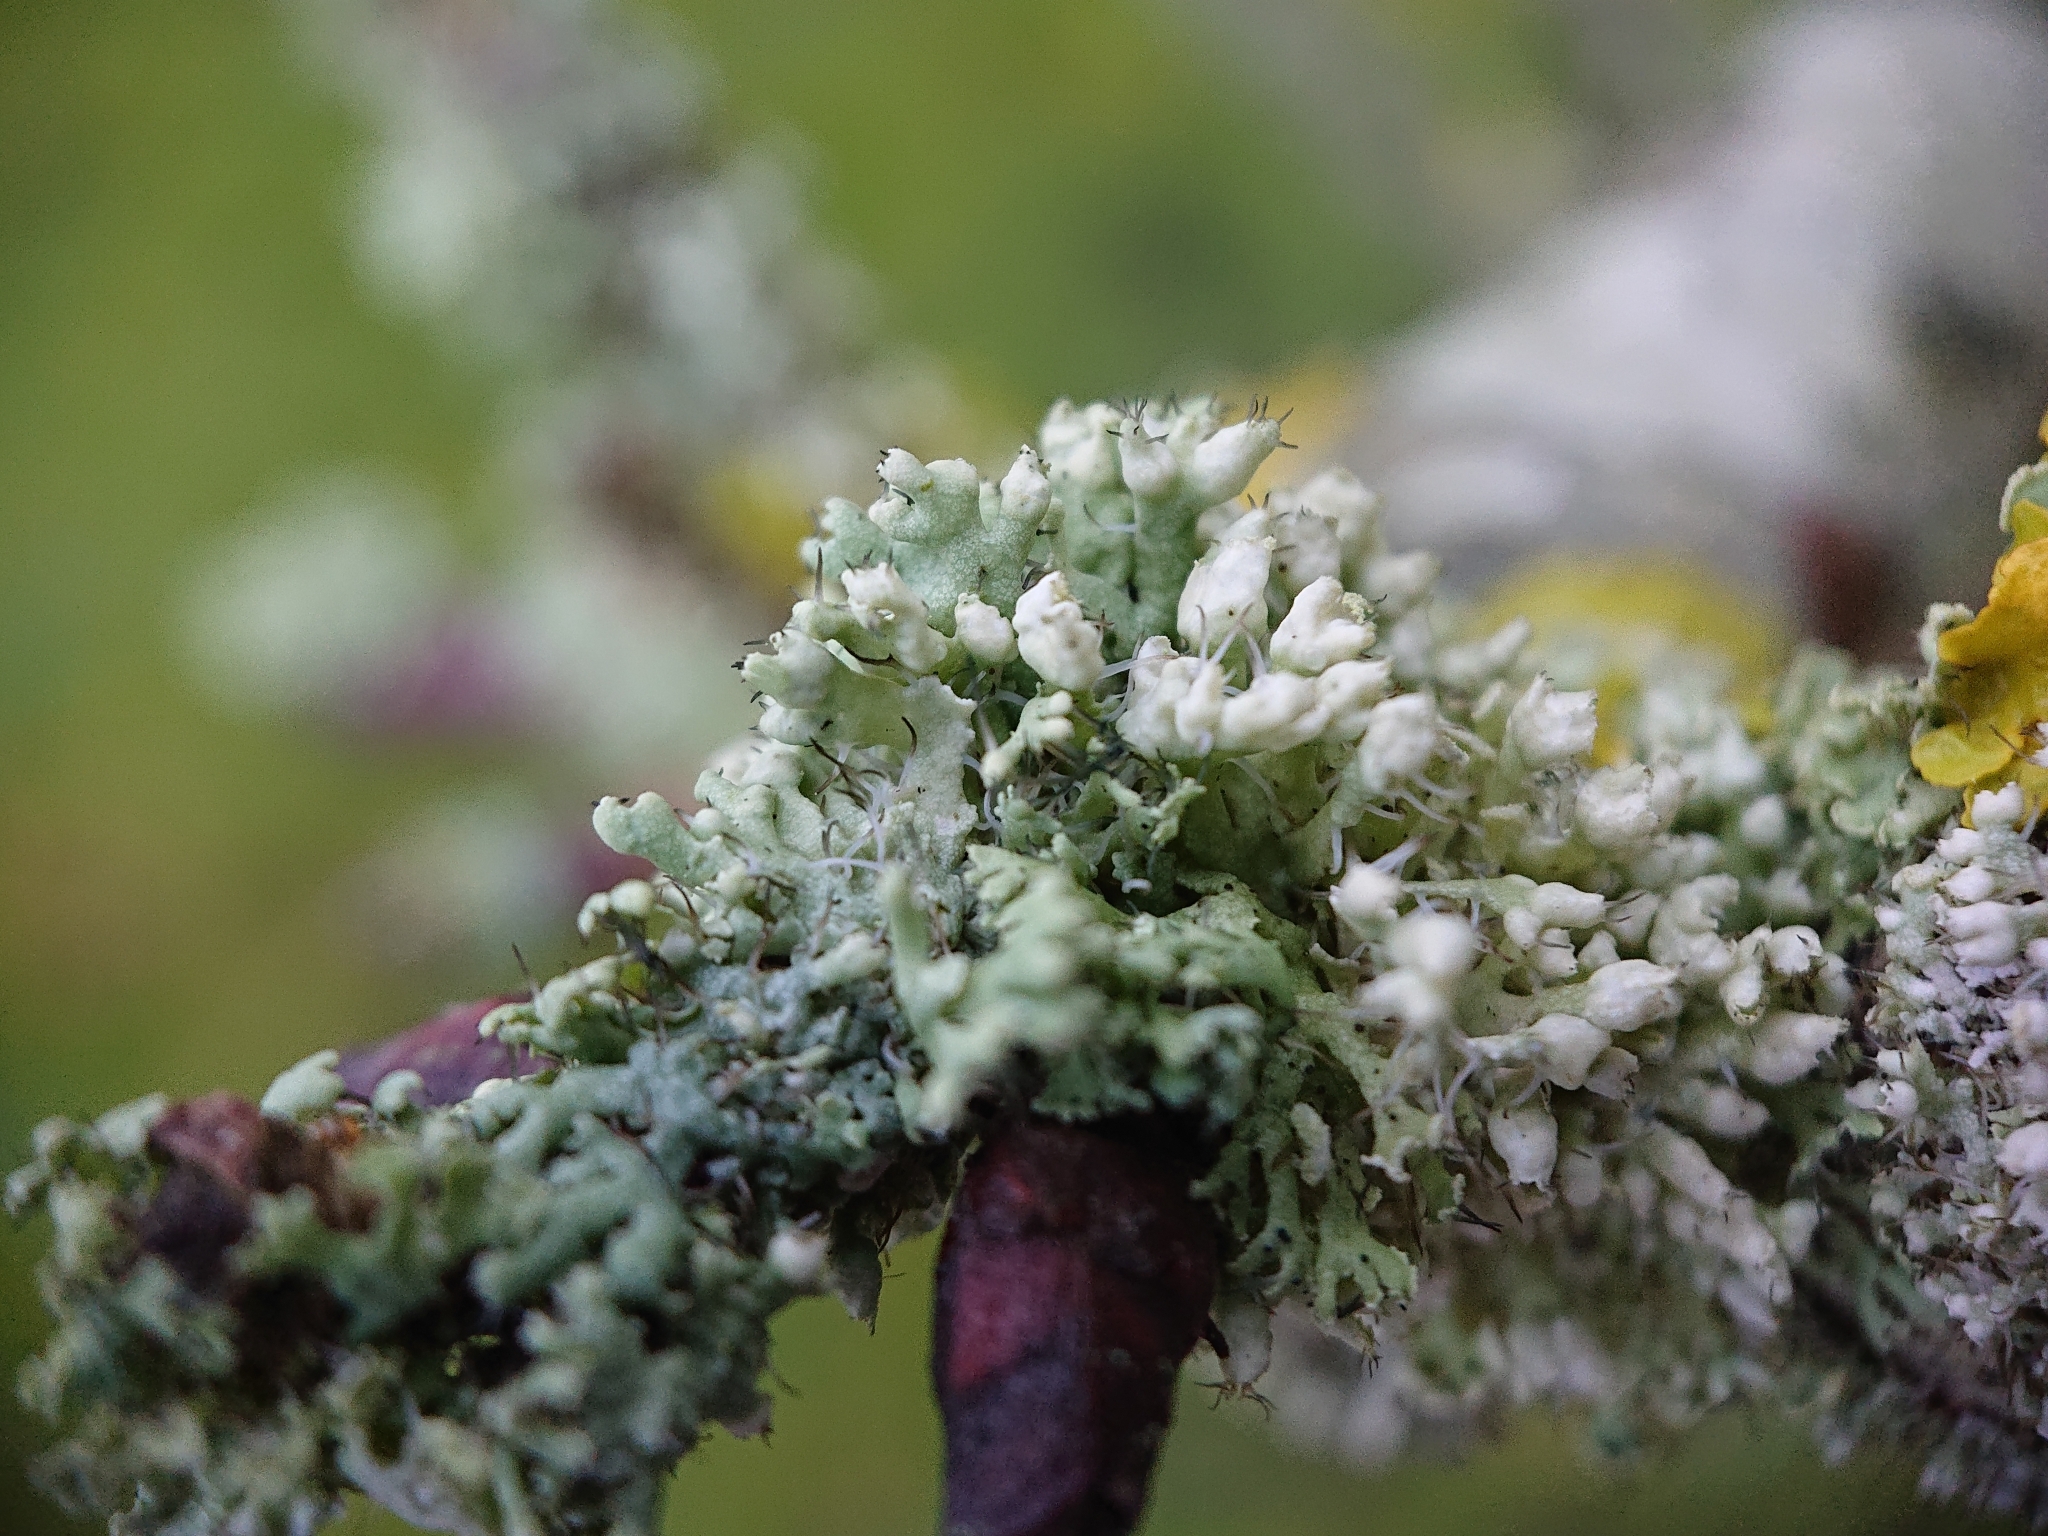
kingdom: Fungi
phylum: Ascomycota
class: Lecanoromycetes
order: Caliciales
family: Physciaceae
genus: Physcia
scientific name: Physcia adscendens
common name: Hooded rosette lichen
